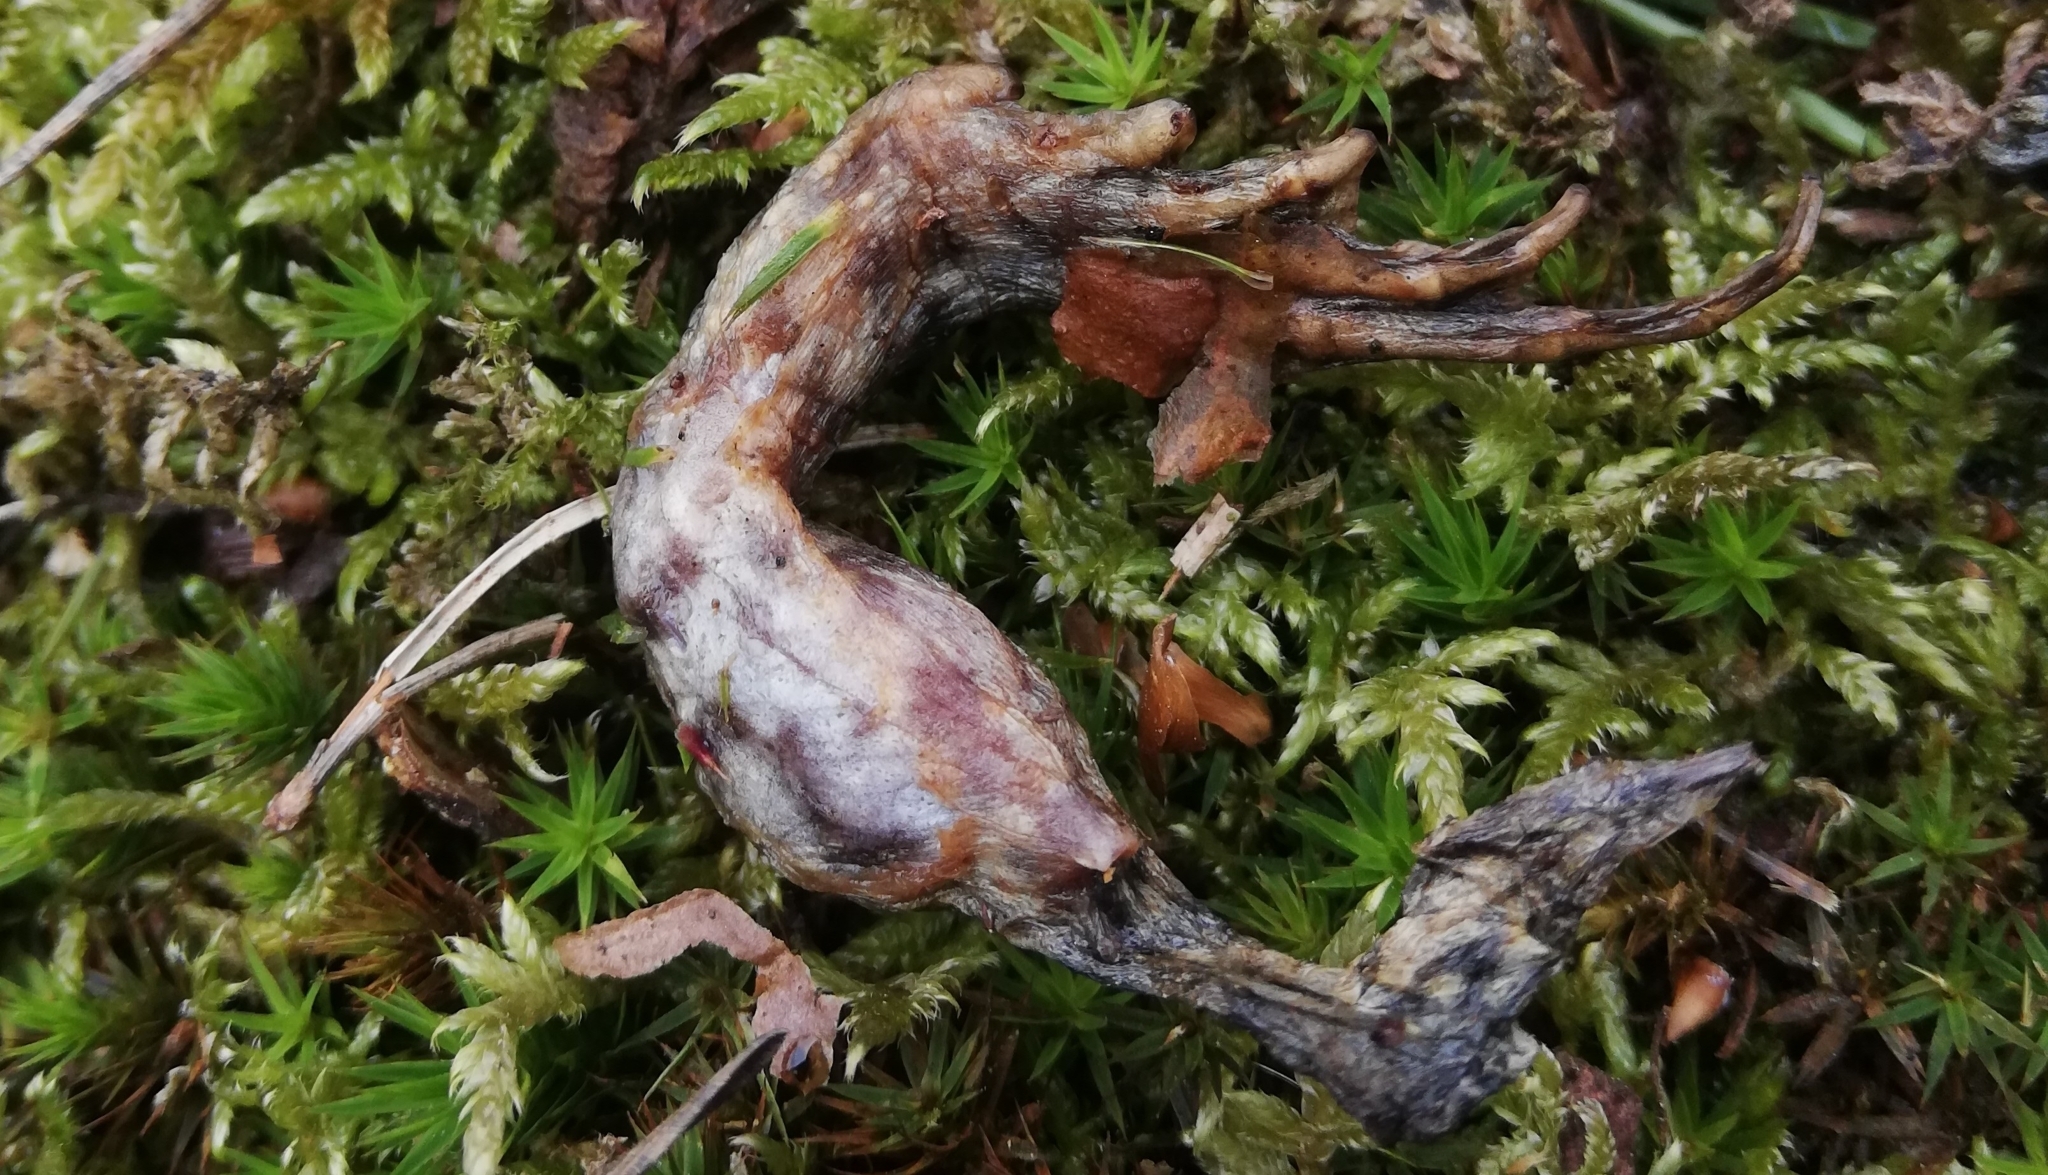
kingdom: Animalia
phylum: Chordata
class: Amphibia
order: Anura
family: Bufonidae
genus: Bufo
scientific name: Bufo bufo
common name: Common toad
